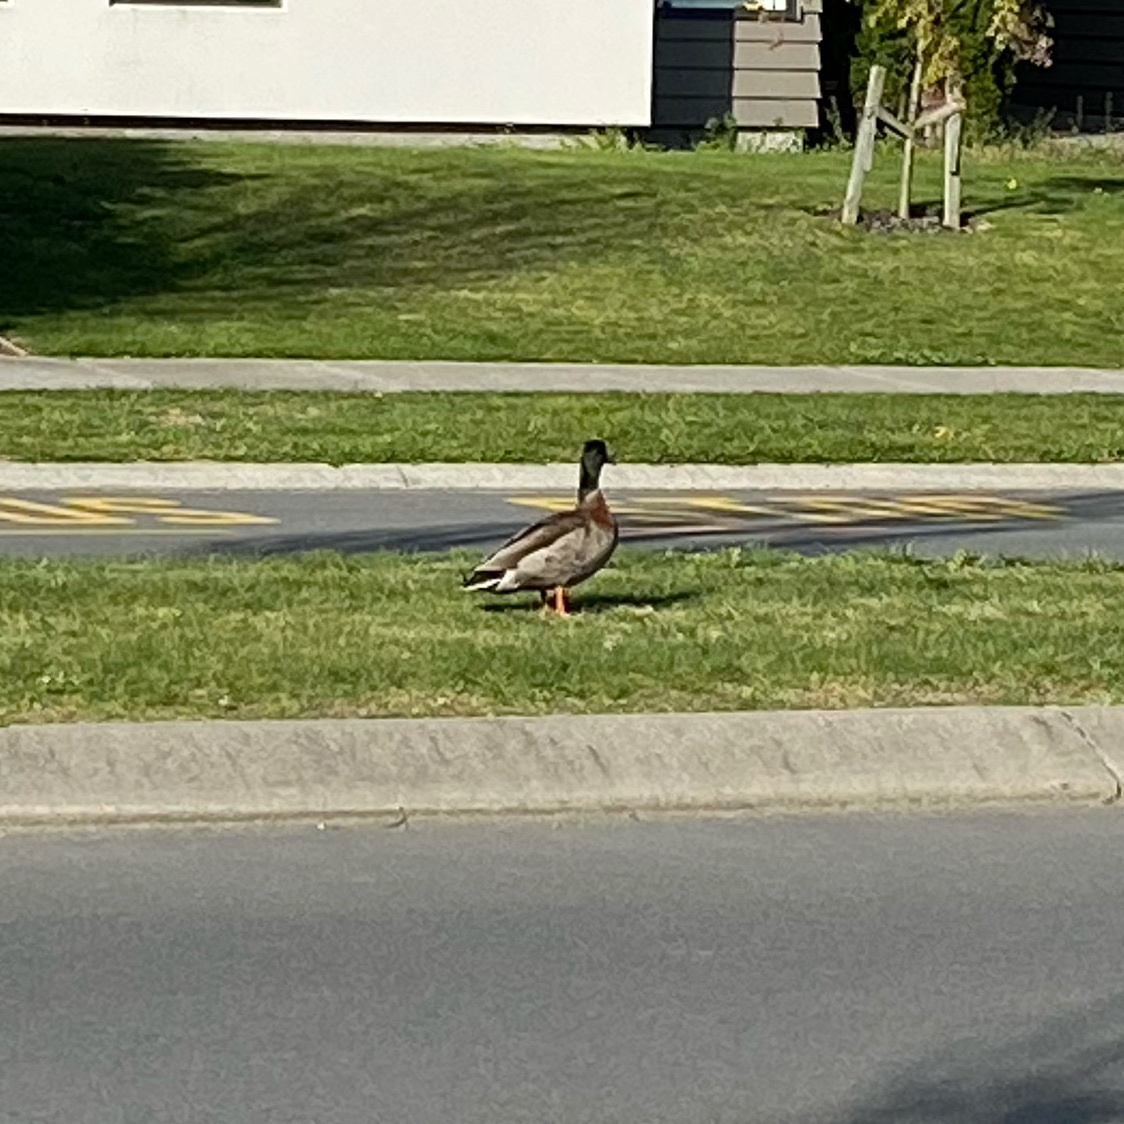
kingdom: Animalia
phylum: Chordata
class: Aves
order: Anseriformes
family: Anatidae
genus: Anas
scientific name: Anas platyrhynchos
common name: Mallard
